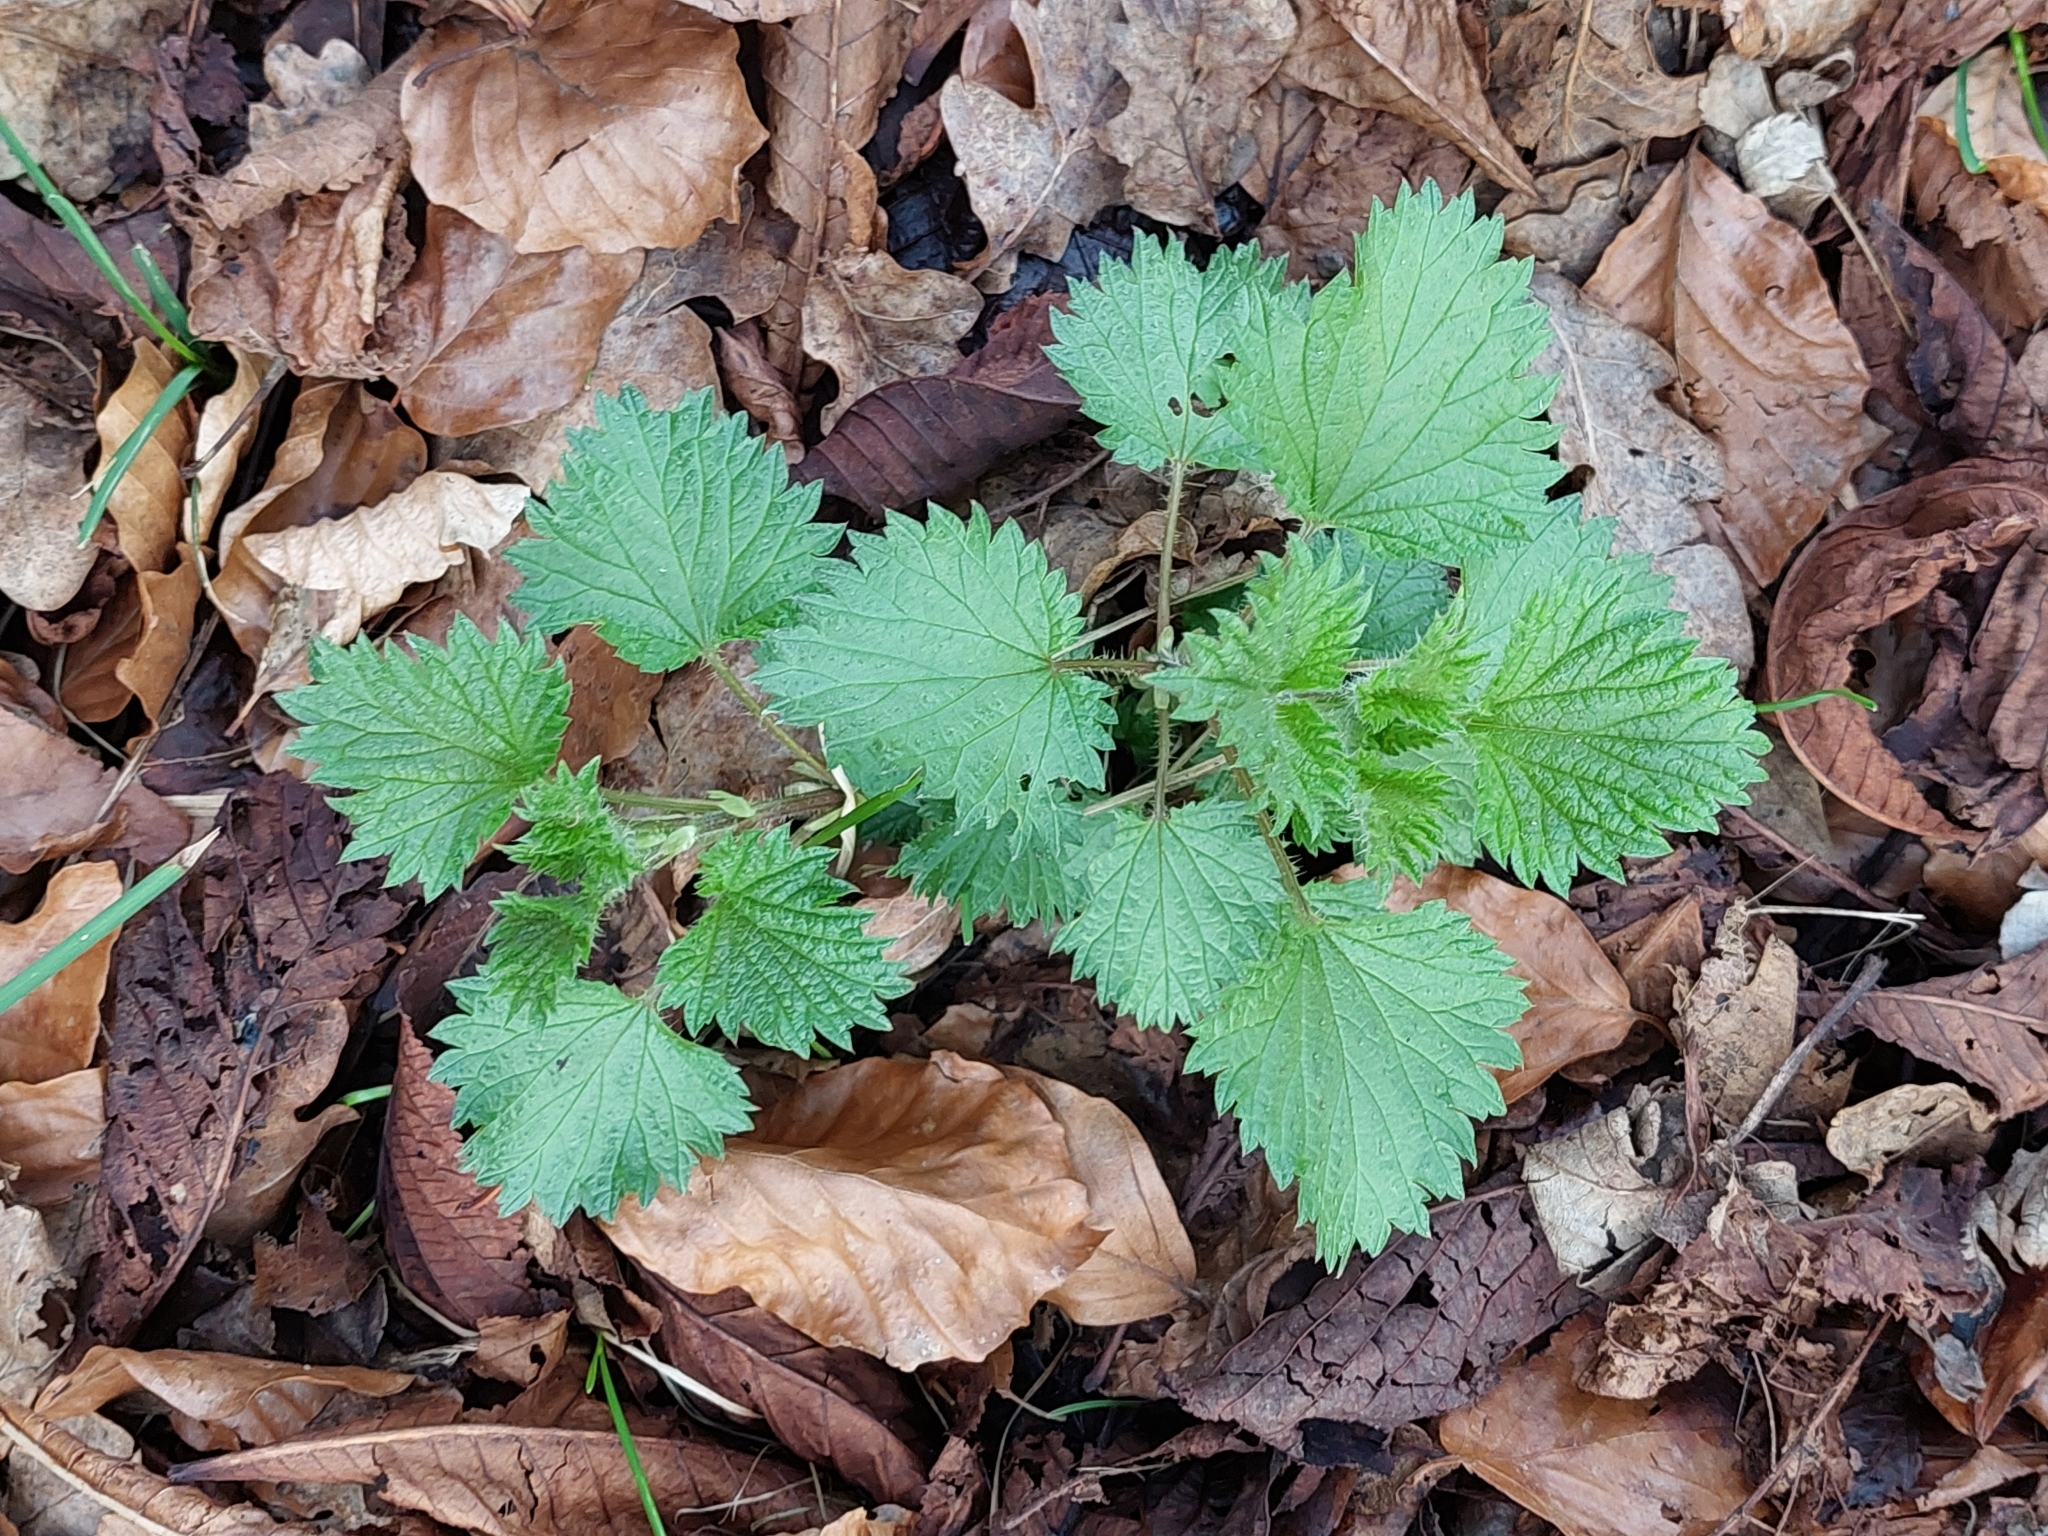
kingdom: Plantae
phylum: Tracheophyta
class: Magnoliopsida
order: Rosales
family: Urticaceae
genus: Urtica
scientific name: Urtica dioica
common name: Common nettle
